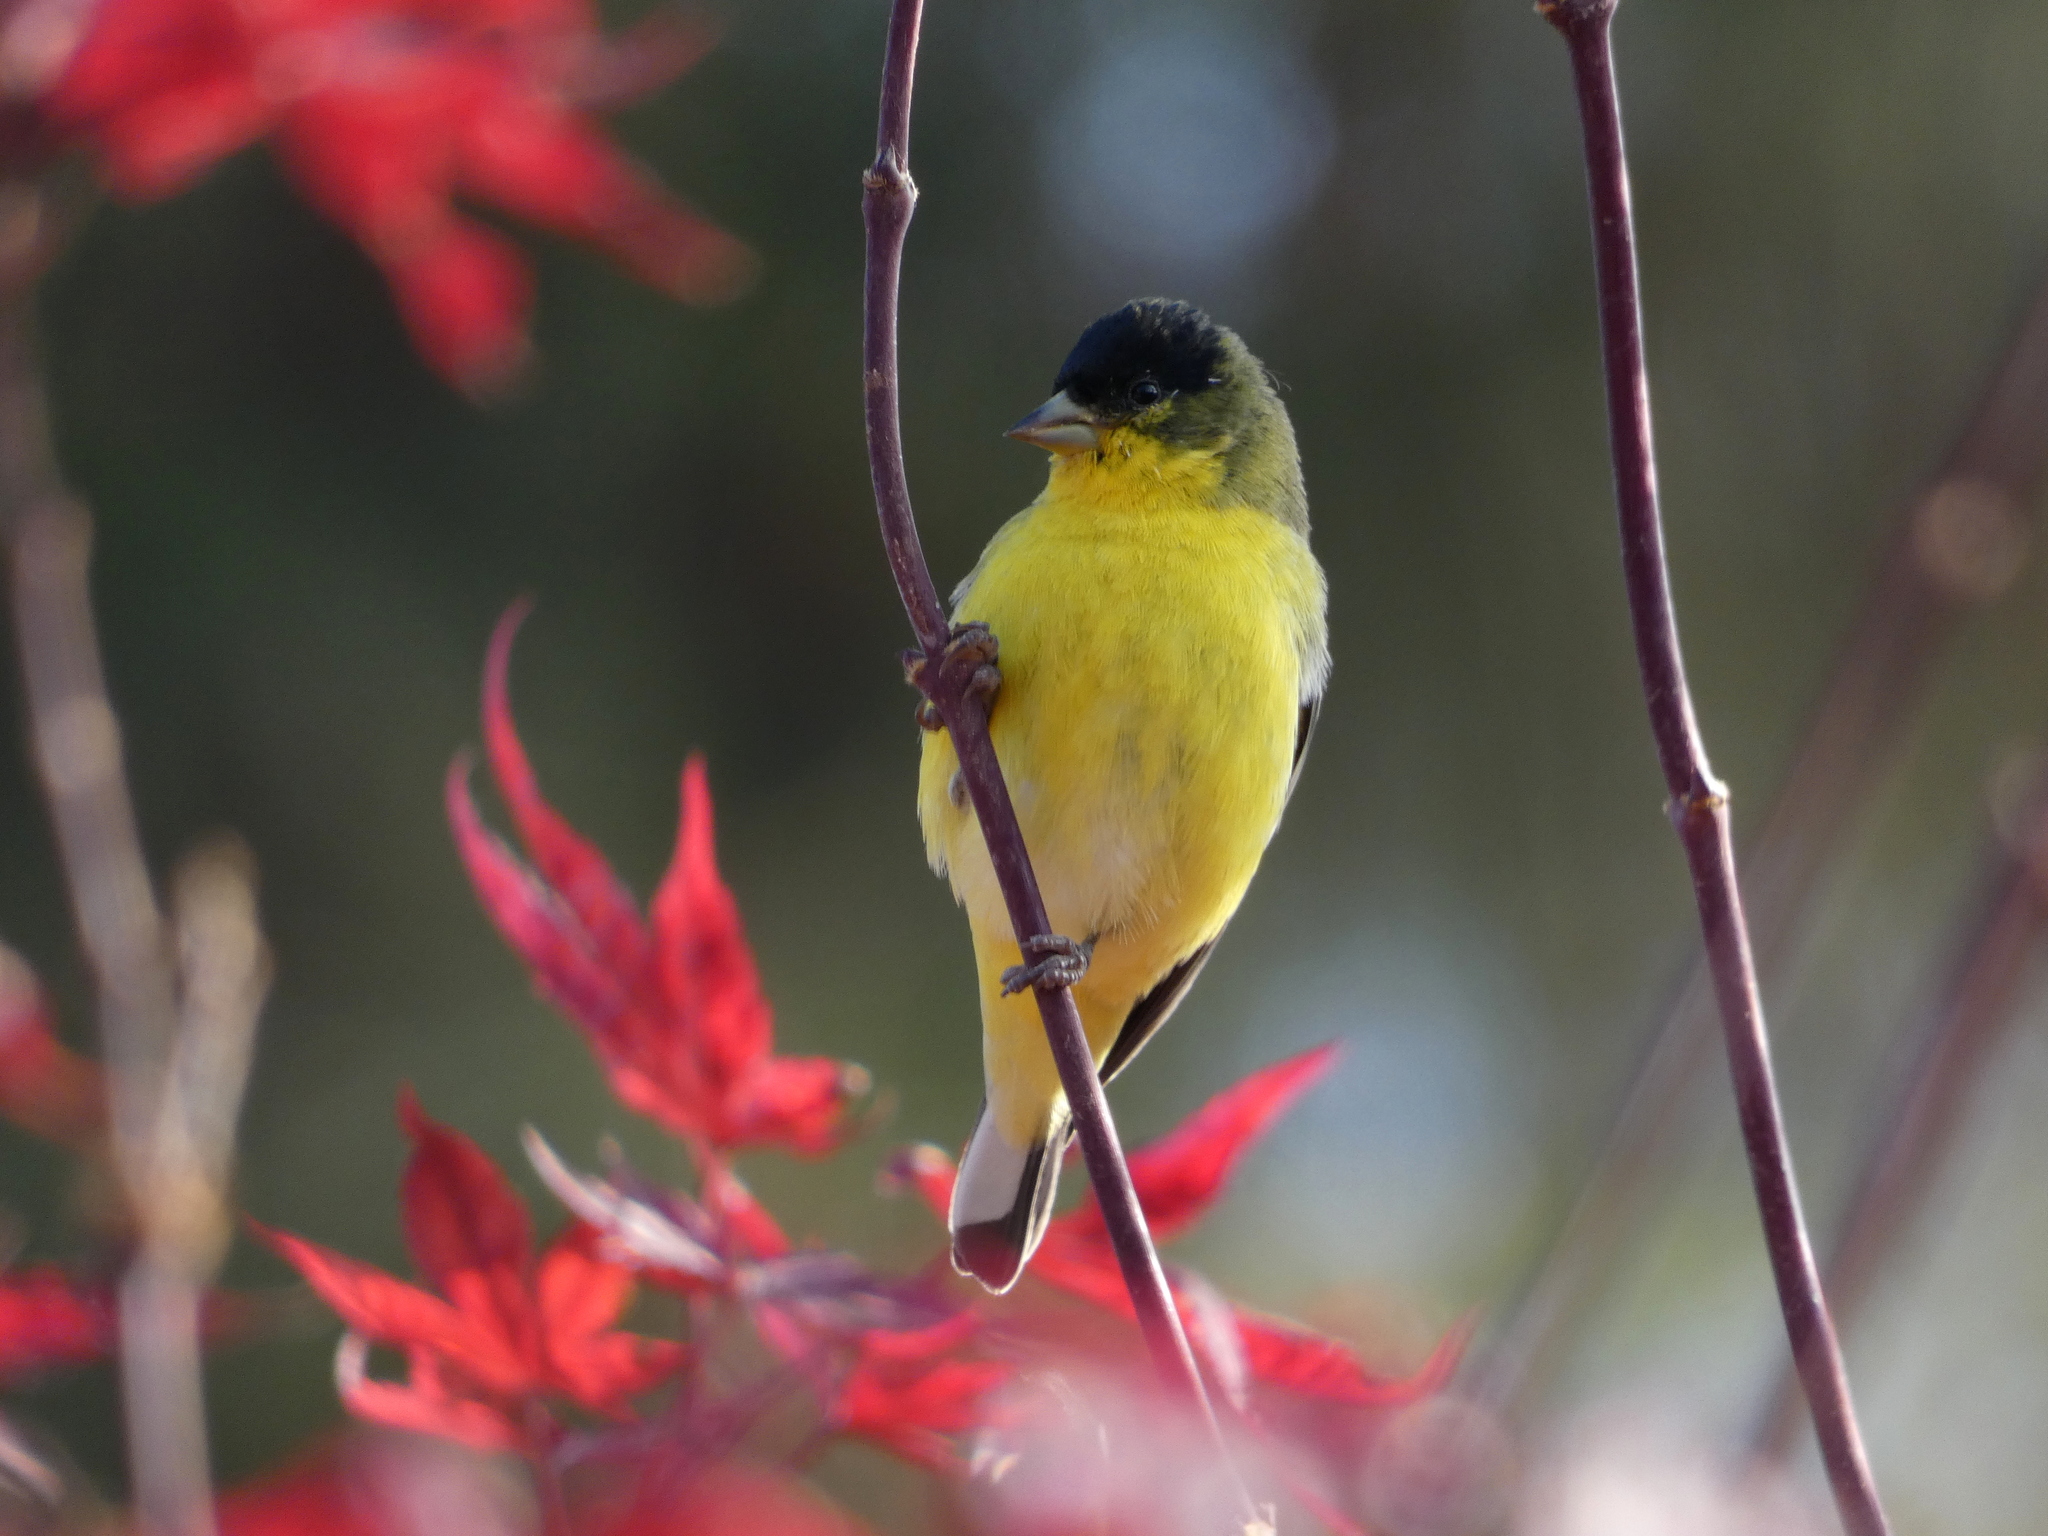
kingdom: Animalia
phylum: Chordata
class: Aves
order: Passeriformes
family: Fringillidae
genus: Spinus
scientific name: Spinus psaltria
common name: Lesser goldfinch
